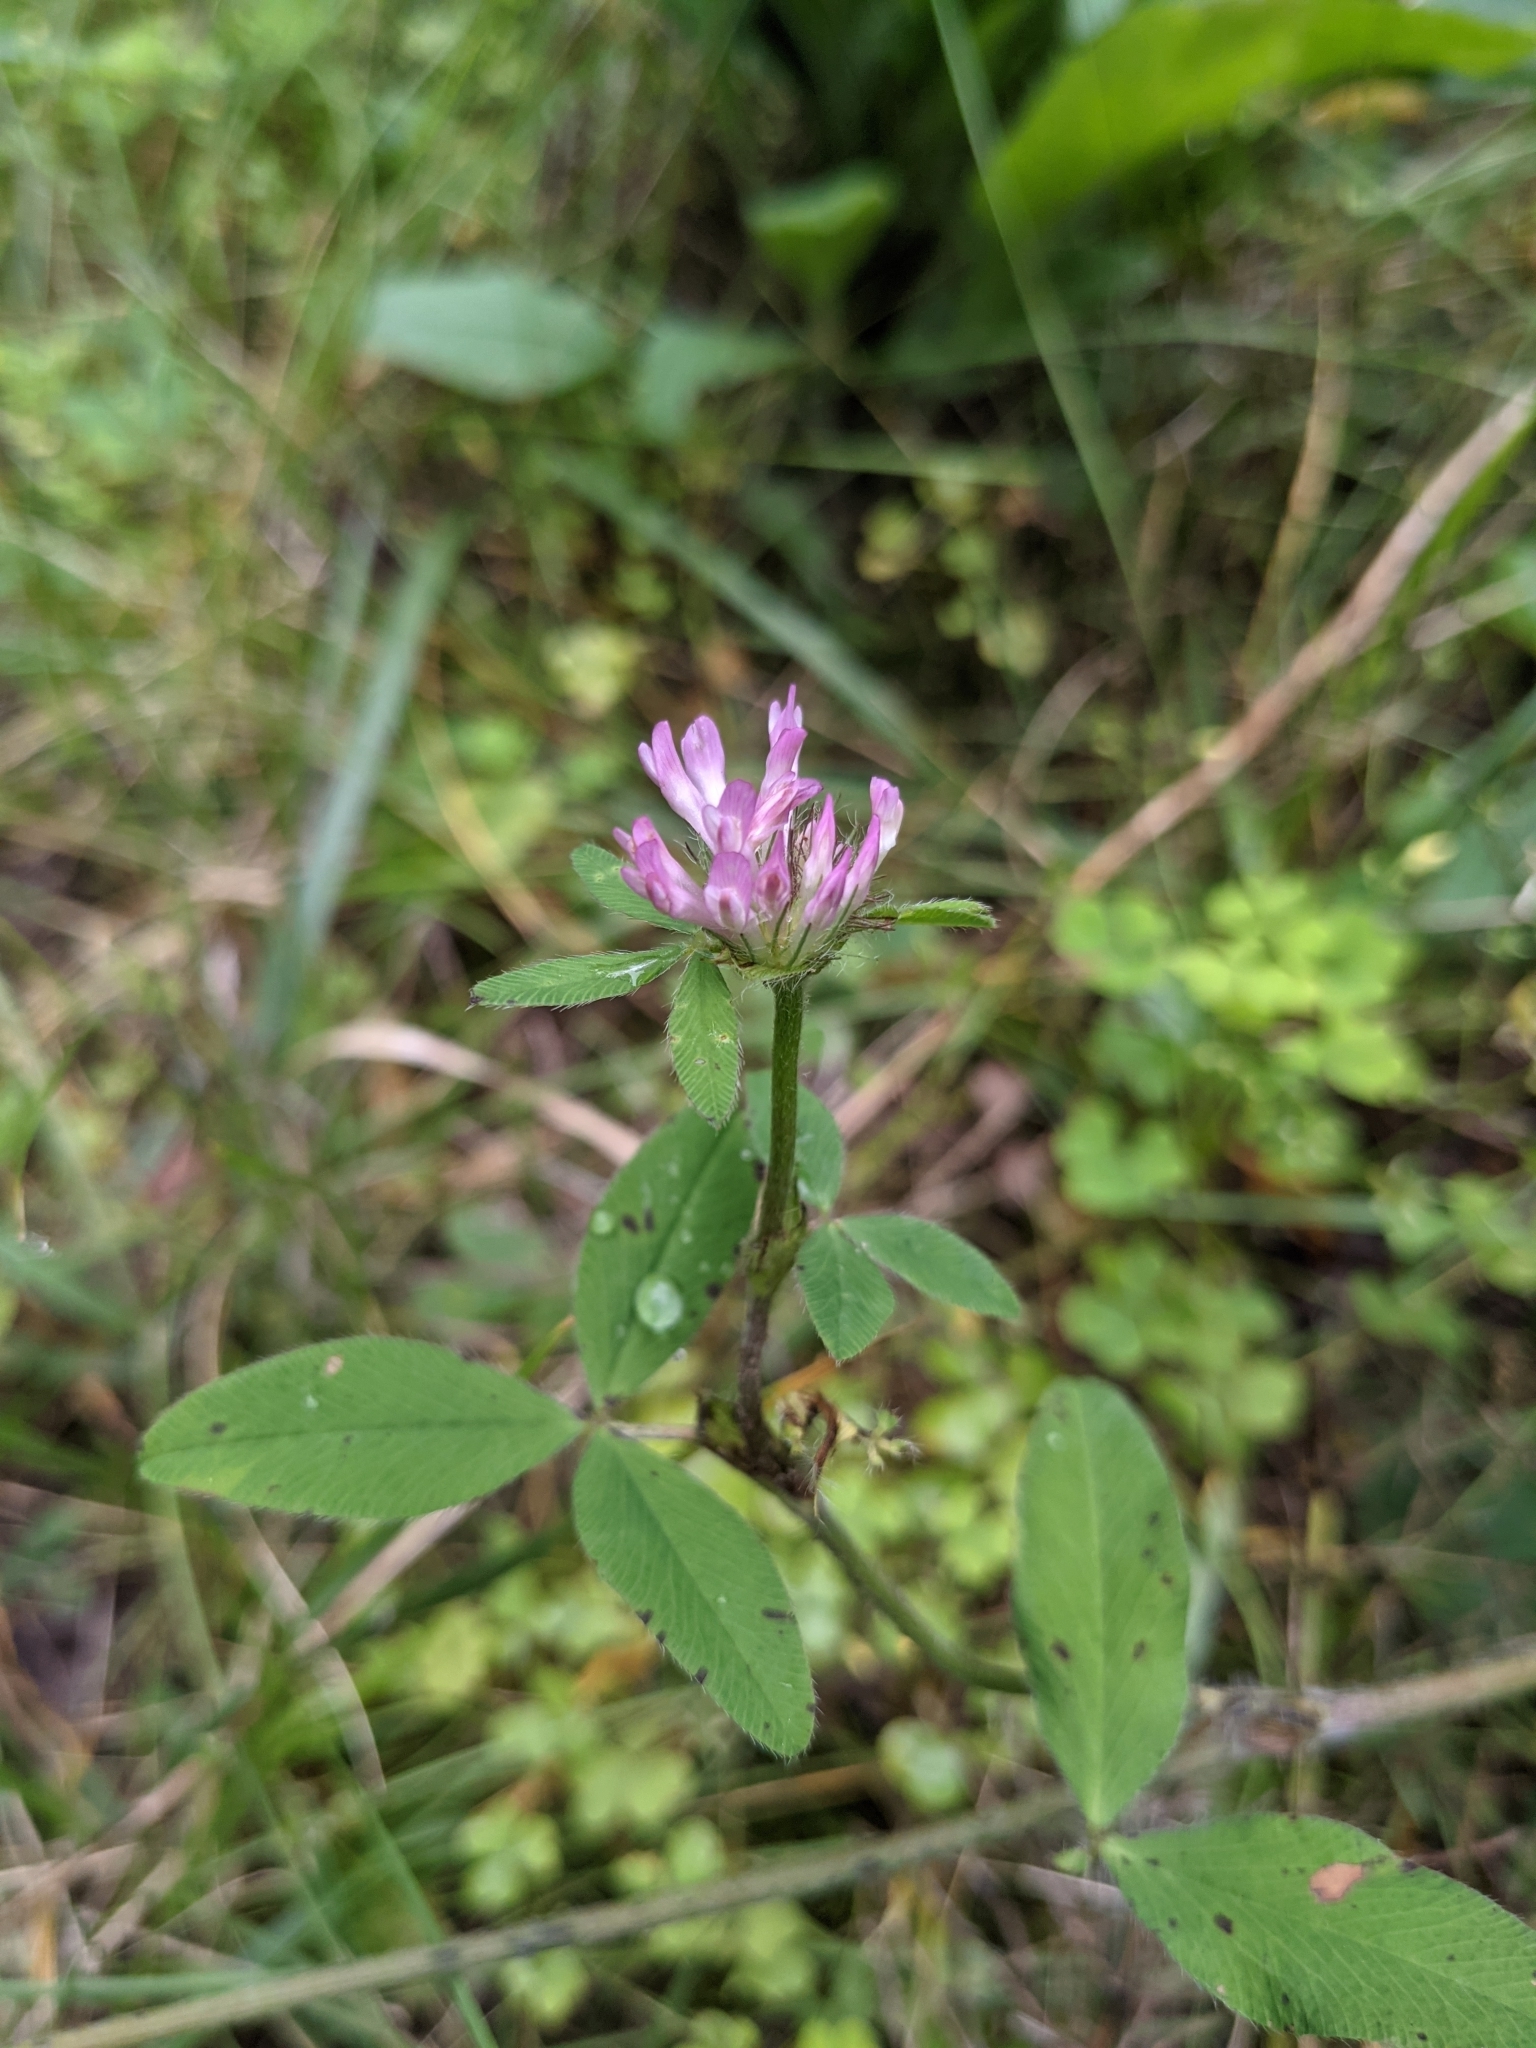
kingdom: Plantae
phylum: Tracheophyta
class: Magnoliopsida
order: Fabales
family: Fabaceae
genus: Trifolium
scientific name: Trifolium pratense
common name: Red clover
